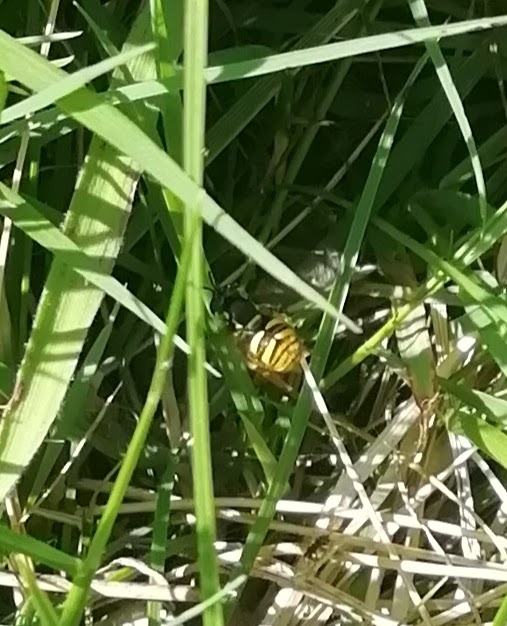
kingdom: Animalia
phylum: Arthropoda
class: Insecta
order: Diptera
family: Syrphidae
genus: Chrysotoxum
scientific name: Chrysotoxum arcuatum
